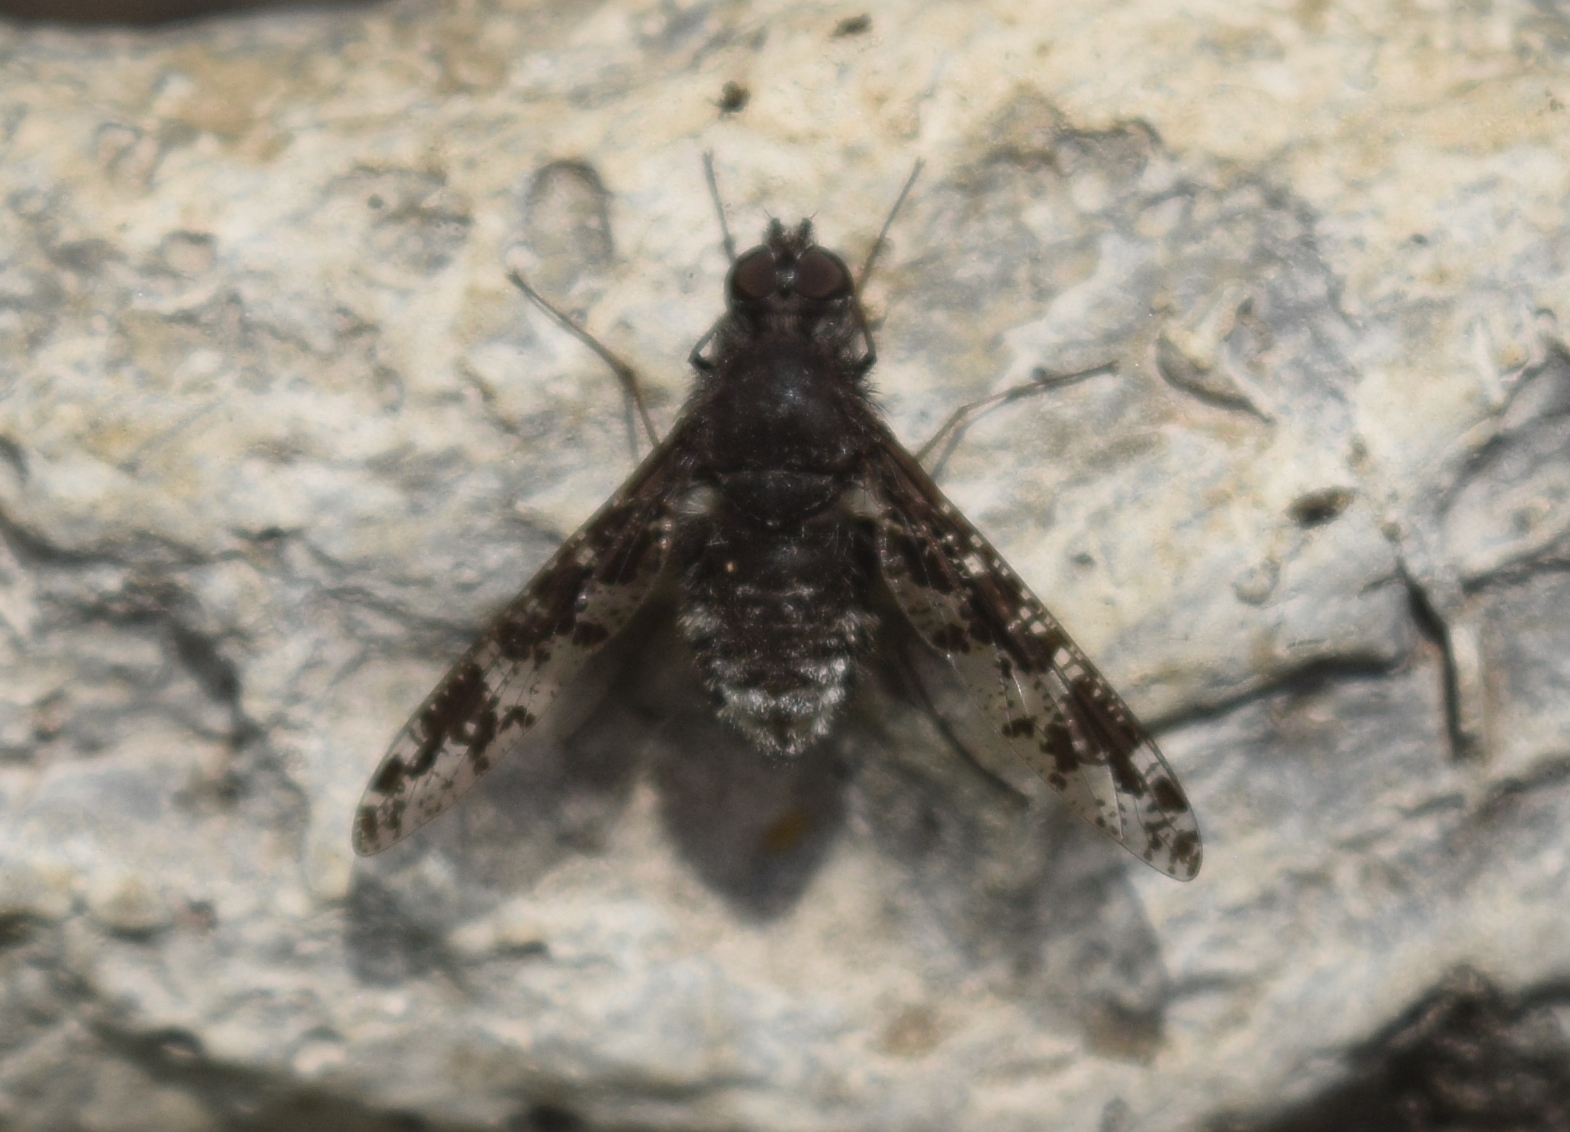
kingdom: Animalia
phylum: Arthropoda
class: Insecta
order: Diptera
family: Bombyliidae
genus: Anthrax
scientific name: Anthrax irroratus
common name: Spotted bee fly
